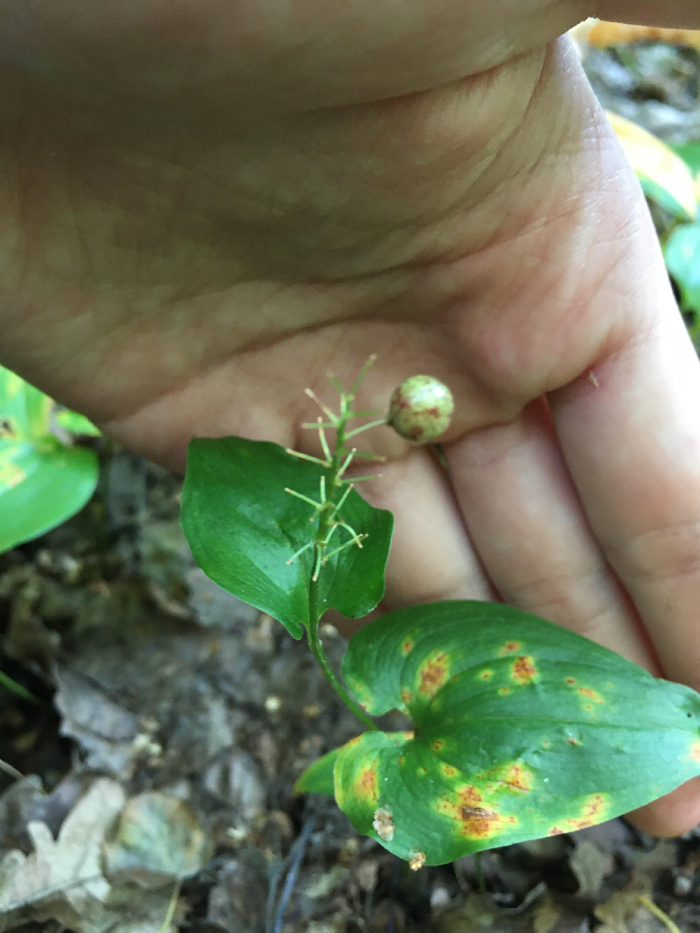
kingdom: Plantae
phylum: Tracheophyta
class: Liliopsida
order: Asparagales
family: Asparagaceae
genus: Maianthemum
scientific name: Maianthemum bifolium
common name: May lily
